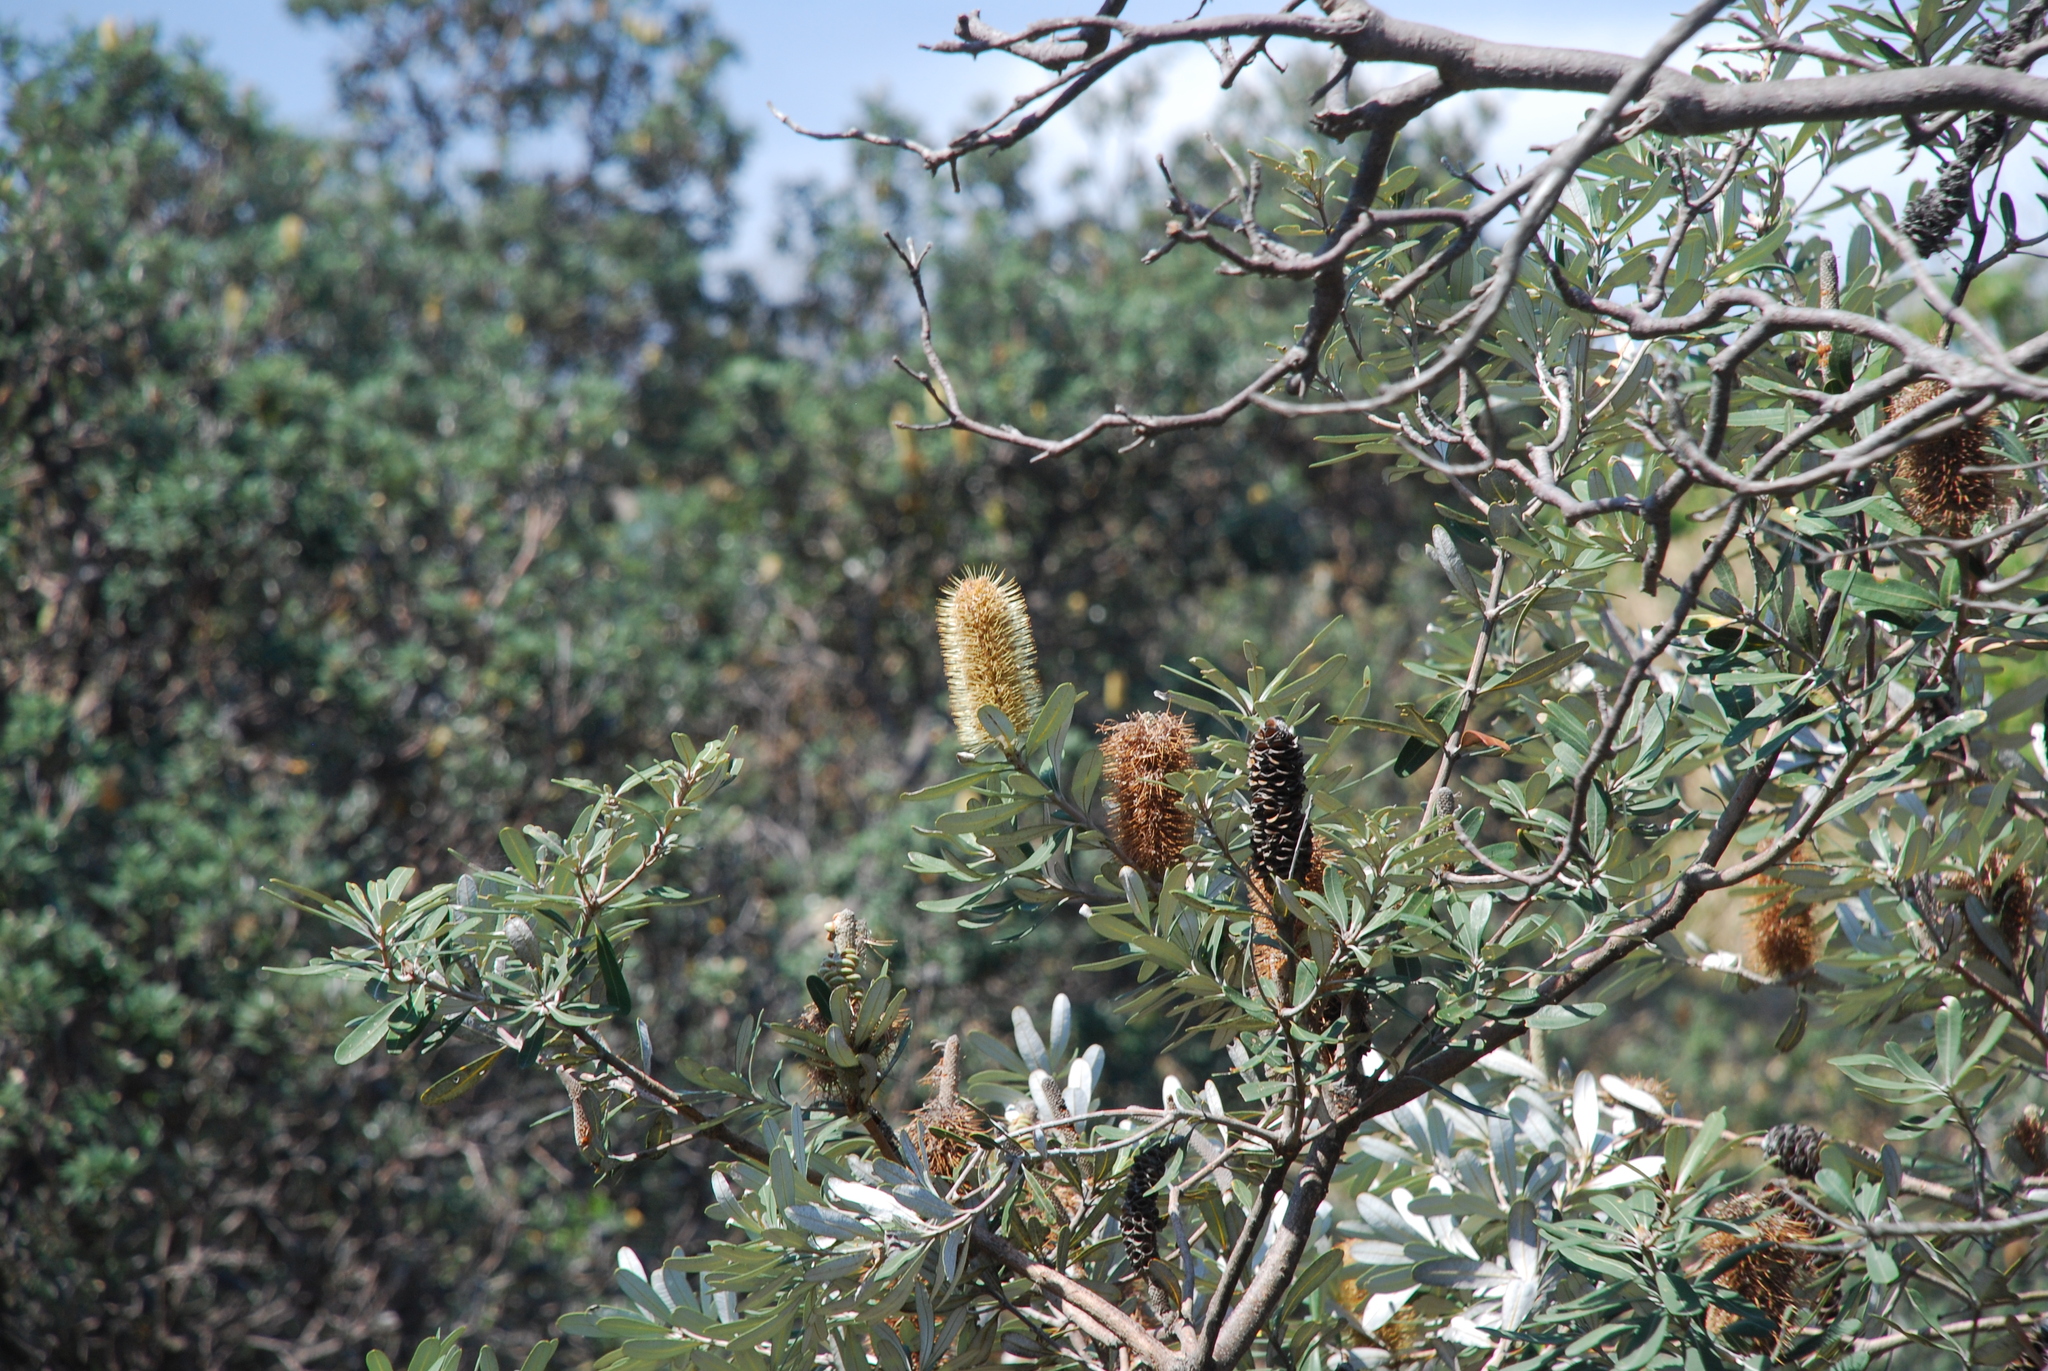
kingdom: Plantae
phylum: Tracheophyta
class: Magnoliopsida
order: Proteales
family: Proteaceae
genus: Banksia
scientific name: Banksia integrifolia
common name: White-honeysuckle
